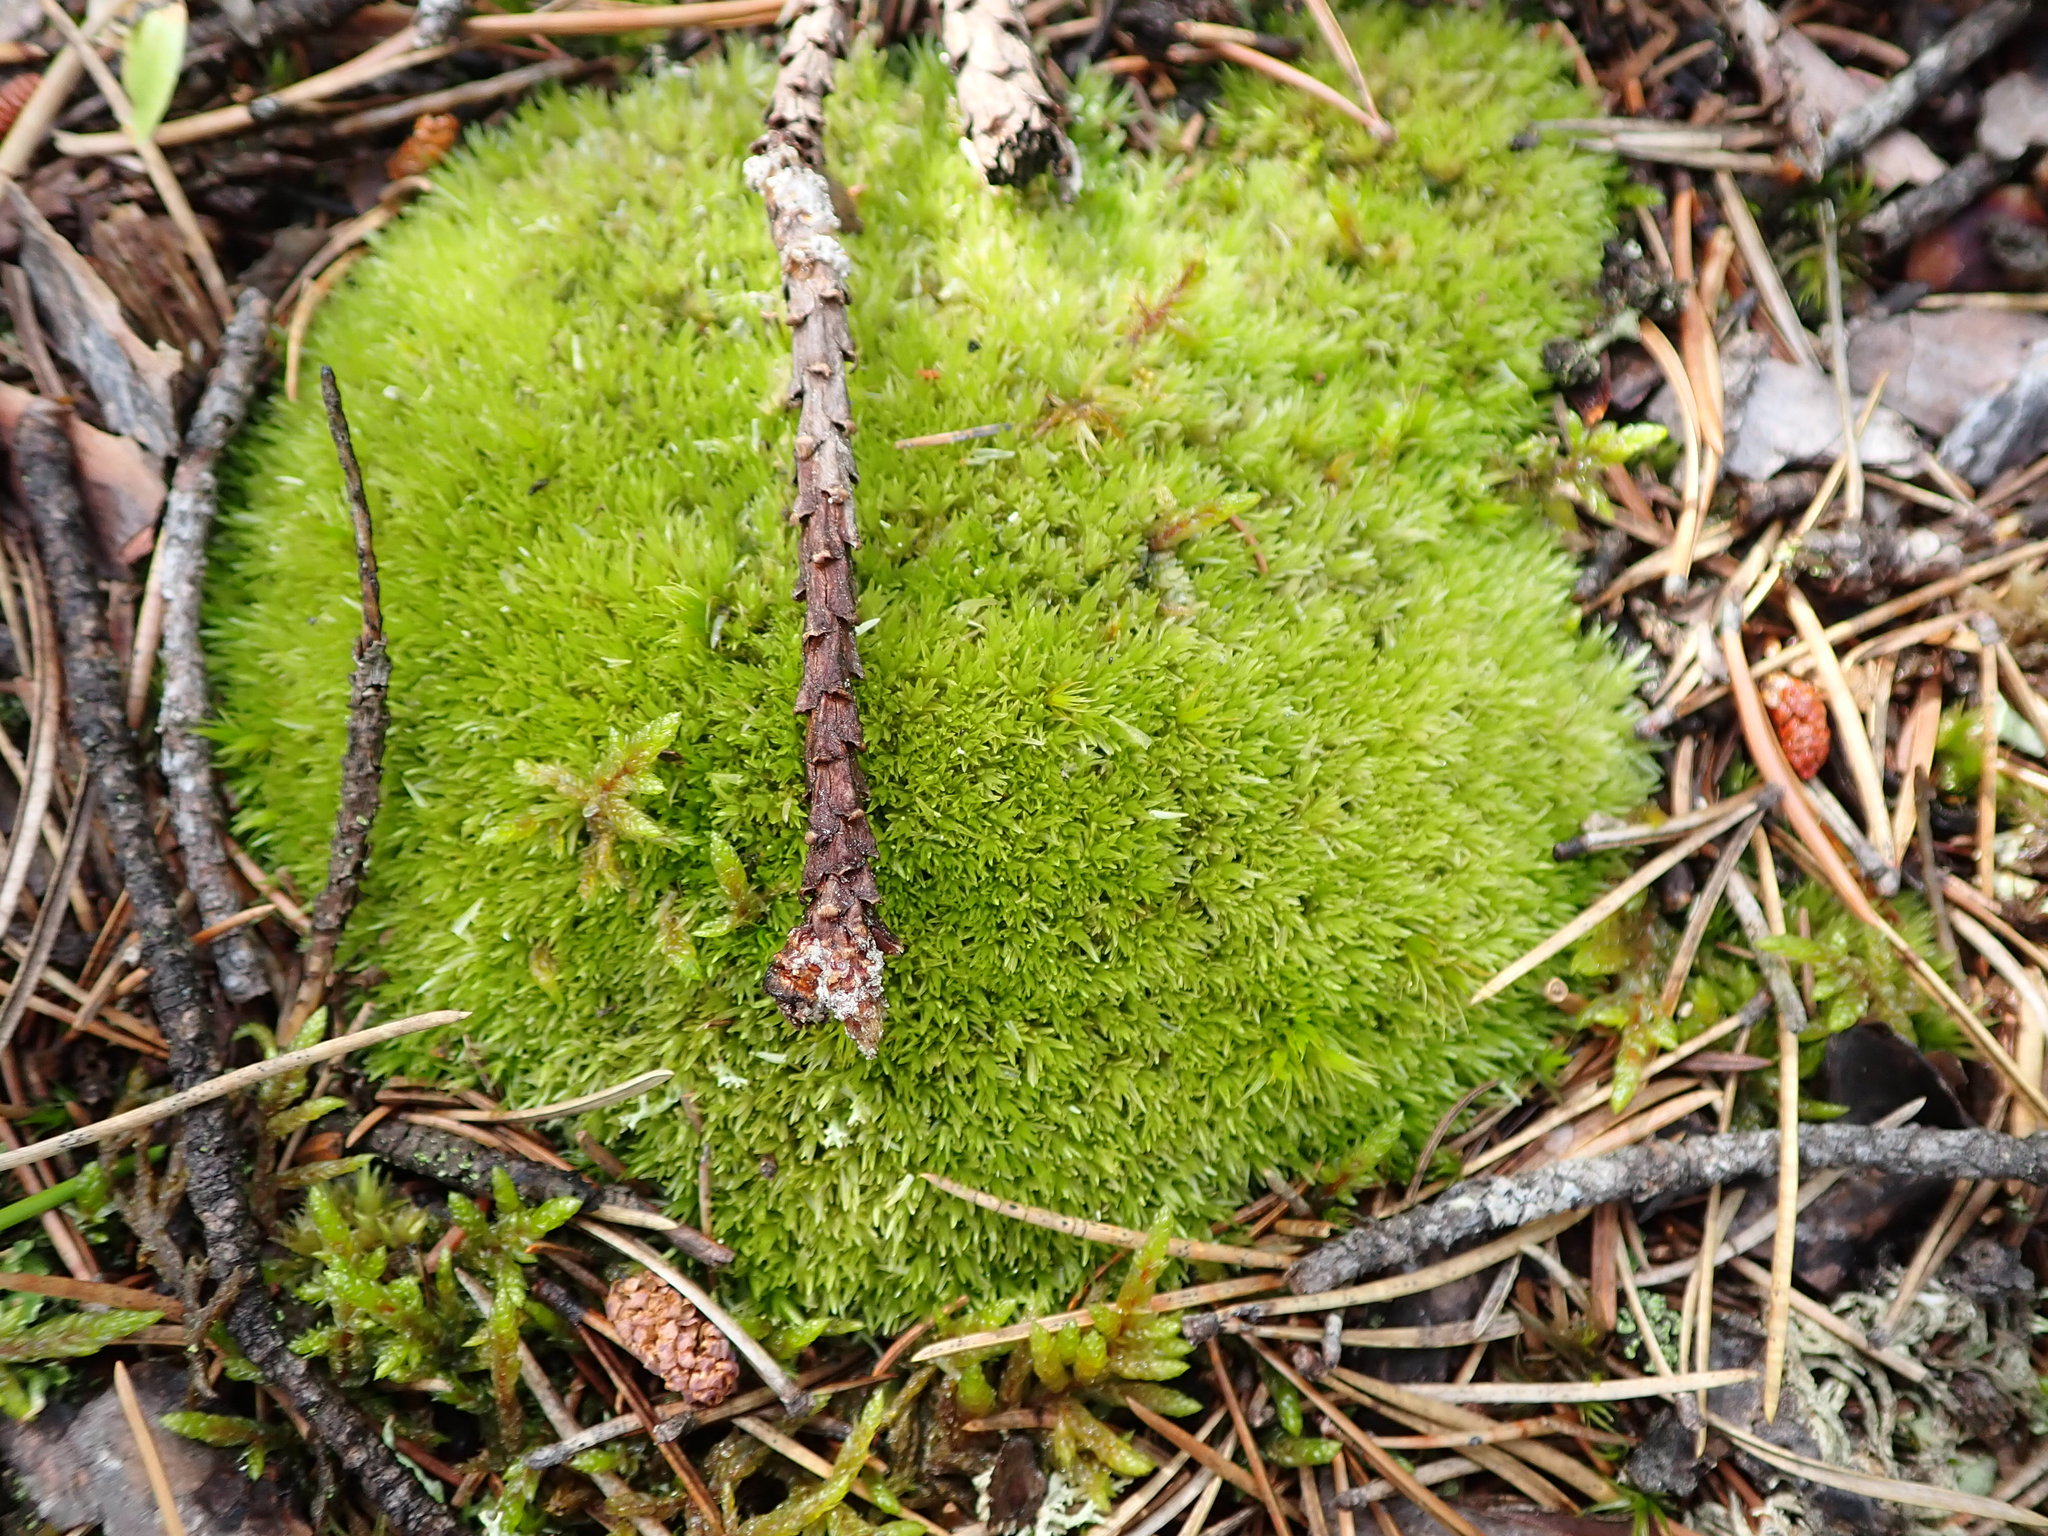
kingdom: Plantae
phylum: Bryophyta
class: Bryopsida
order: Dicranales
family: Leucobryaceae
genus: Leucobryum
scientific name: Leucobryum glaucum
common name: Large white-moss
